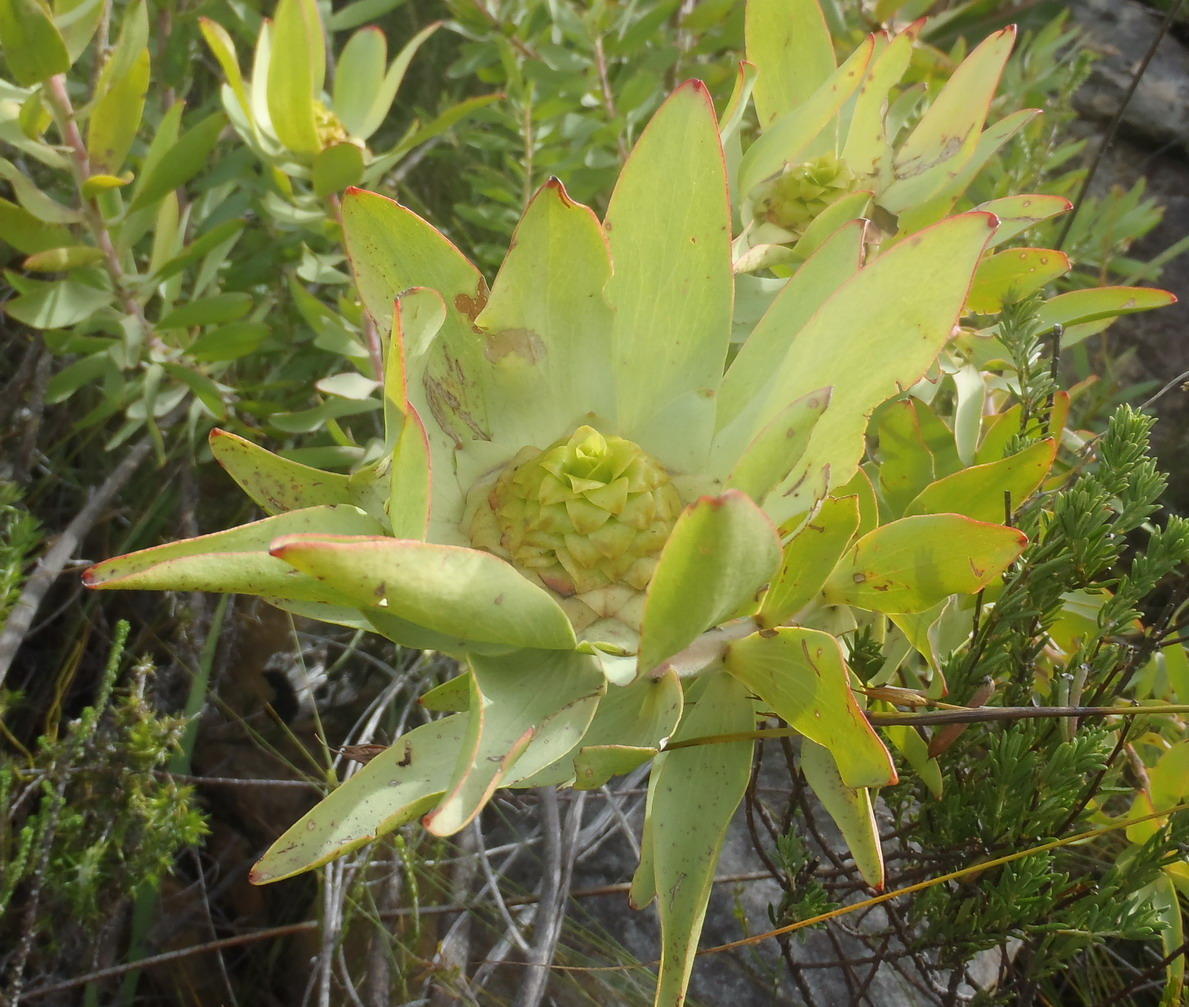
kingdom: Plantae
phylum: Tracheophyta
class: Magnoliopsida
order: Proteales
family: Proteaceae
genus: Leucadendron
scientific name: Leucadendron tinctum
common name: Spicy conebush
